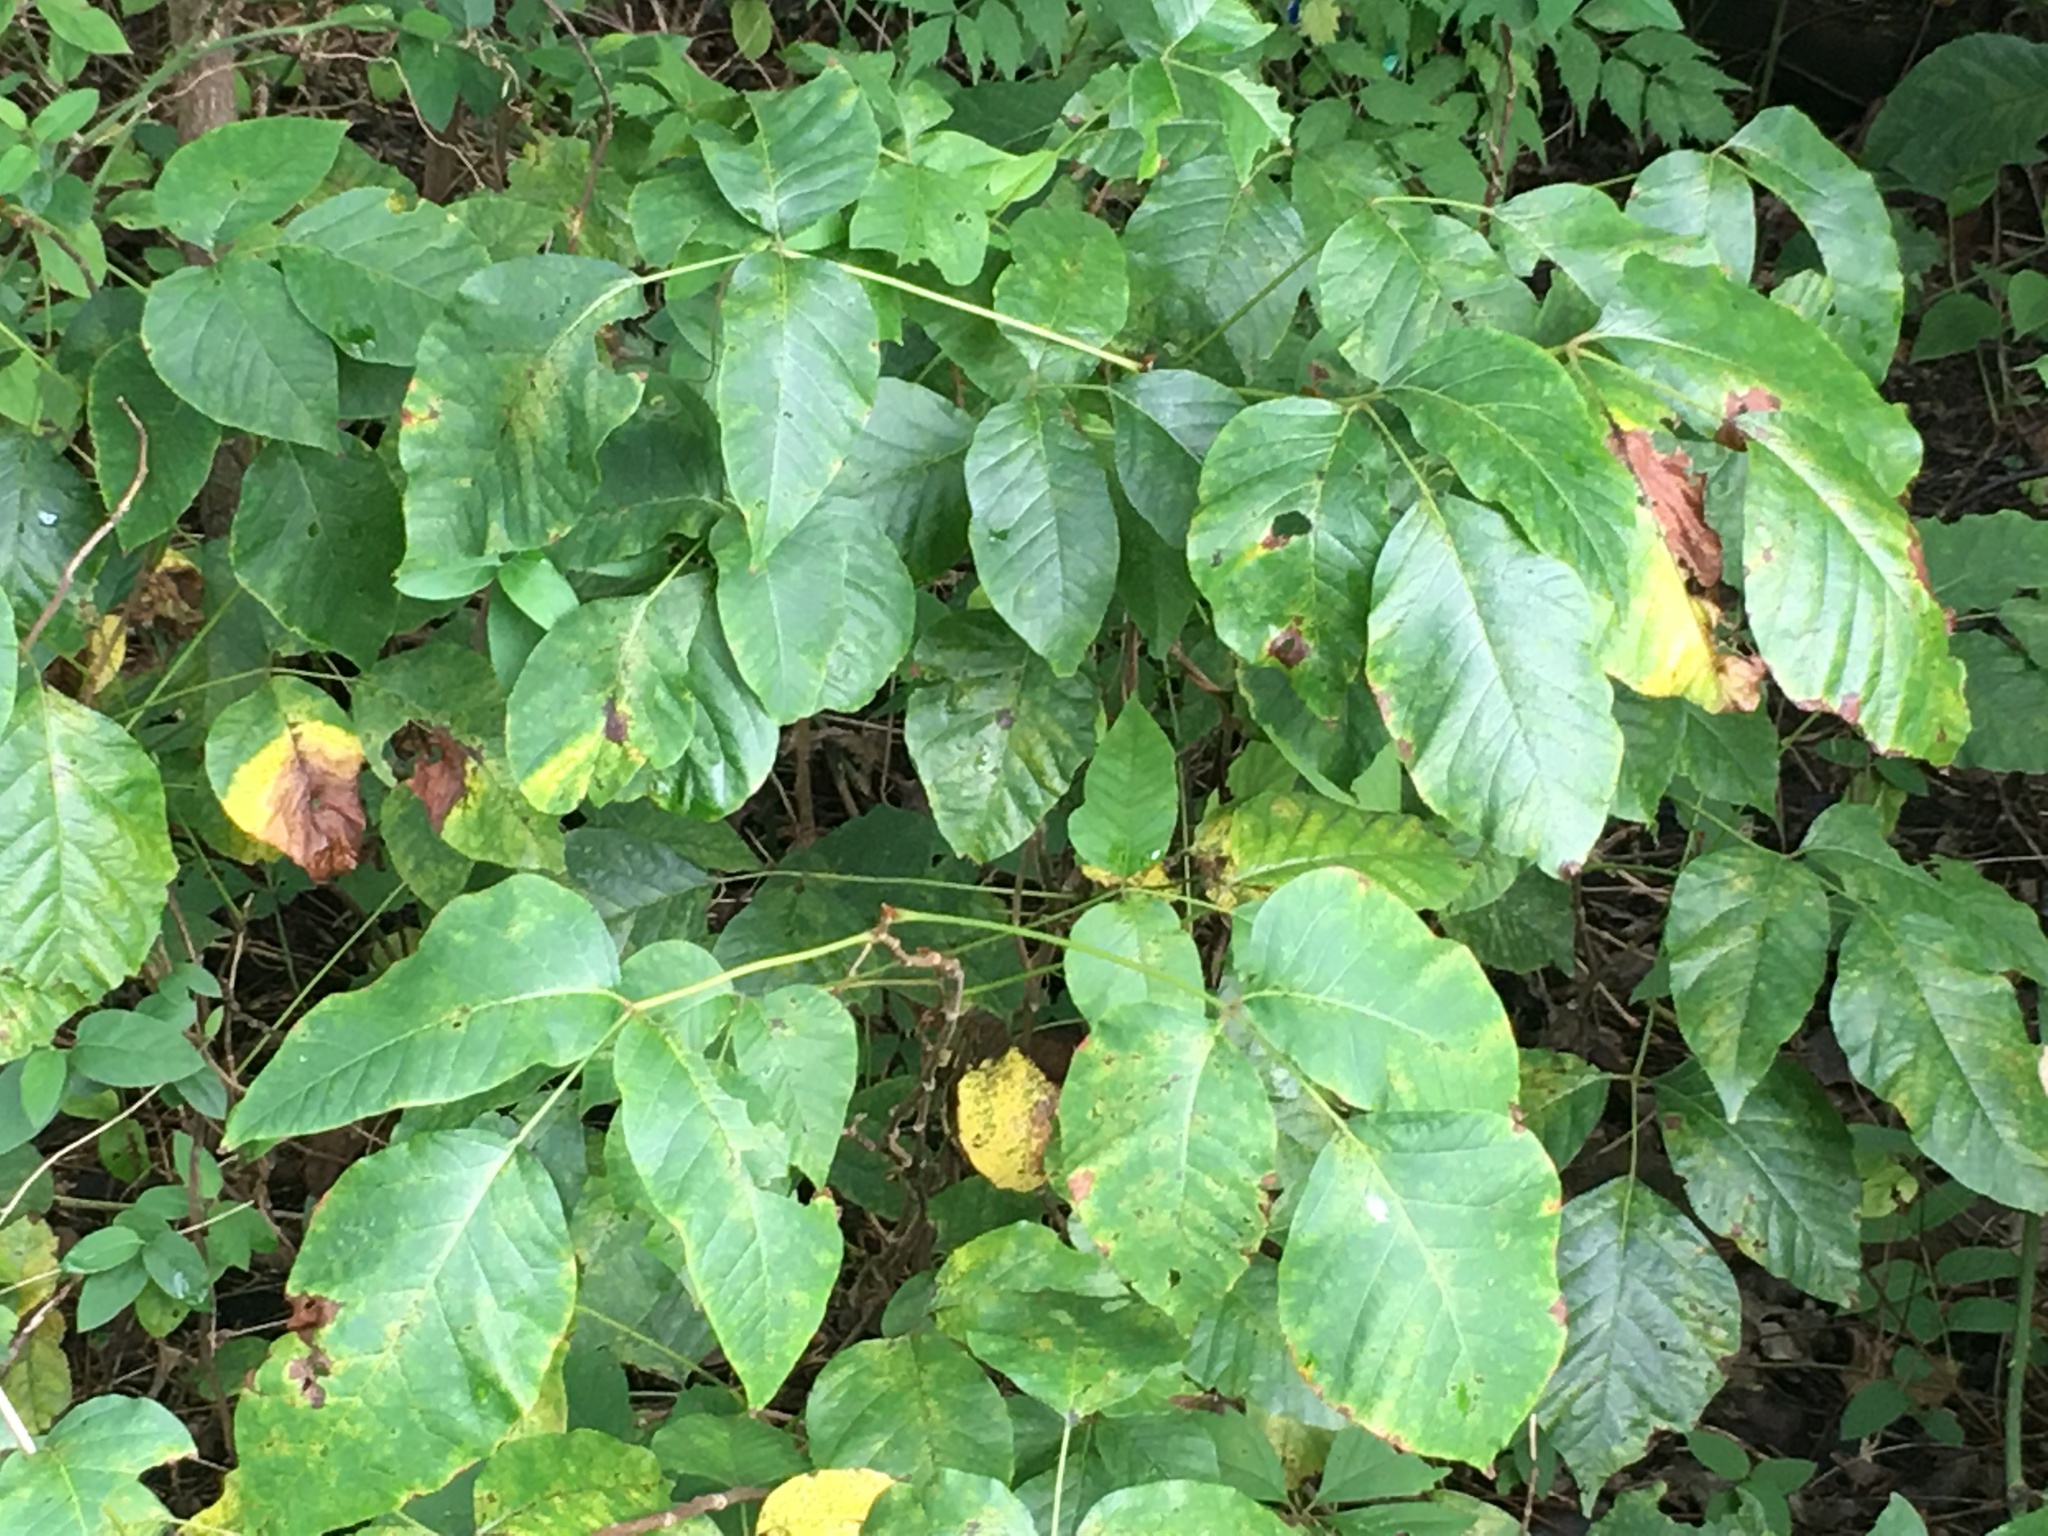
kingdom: Plantae
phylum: Tracheophyta
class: Magnoliopsida
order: Sapindales
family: Anacardiaceae
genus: Toxicodendron
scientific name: Toxicodendron radicans
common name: Poison ivy
